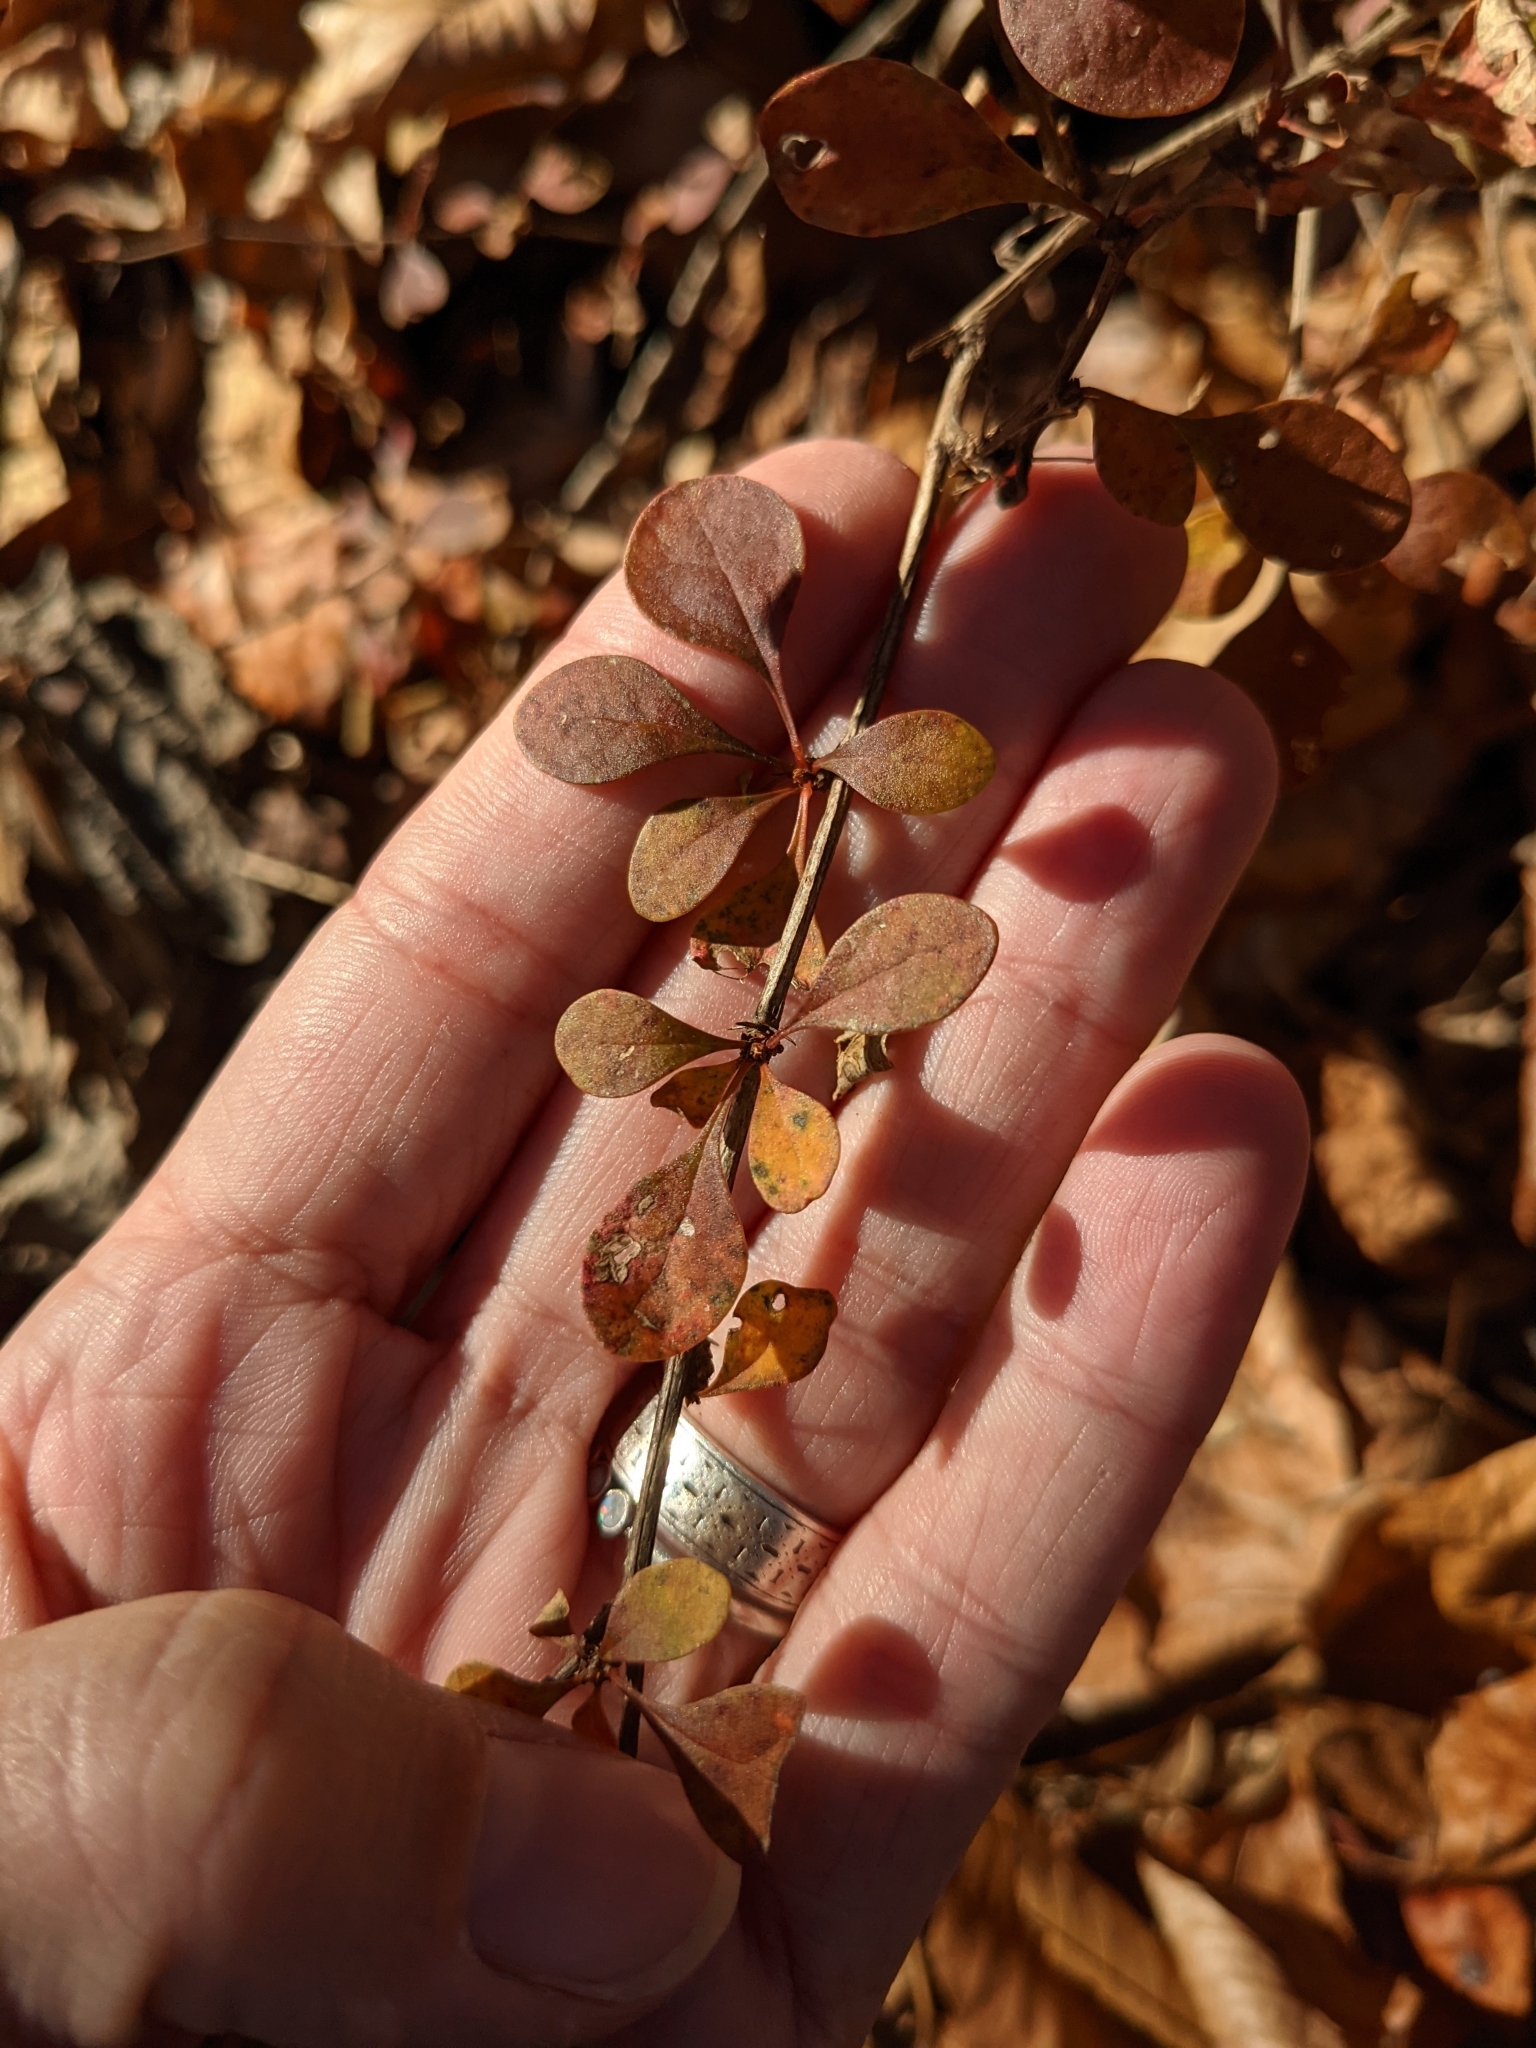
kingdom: Plantae
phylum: Tracheophyta
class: Magnoliopsida
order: Ranunculales
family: Berberidaceae
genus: Berberis
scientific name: Berberis thunbergii
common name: Japanese barberry
